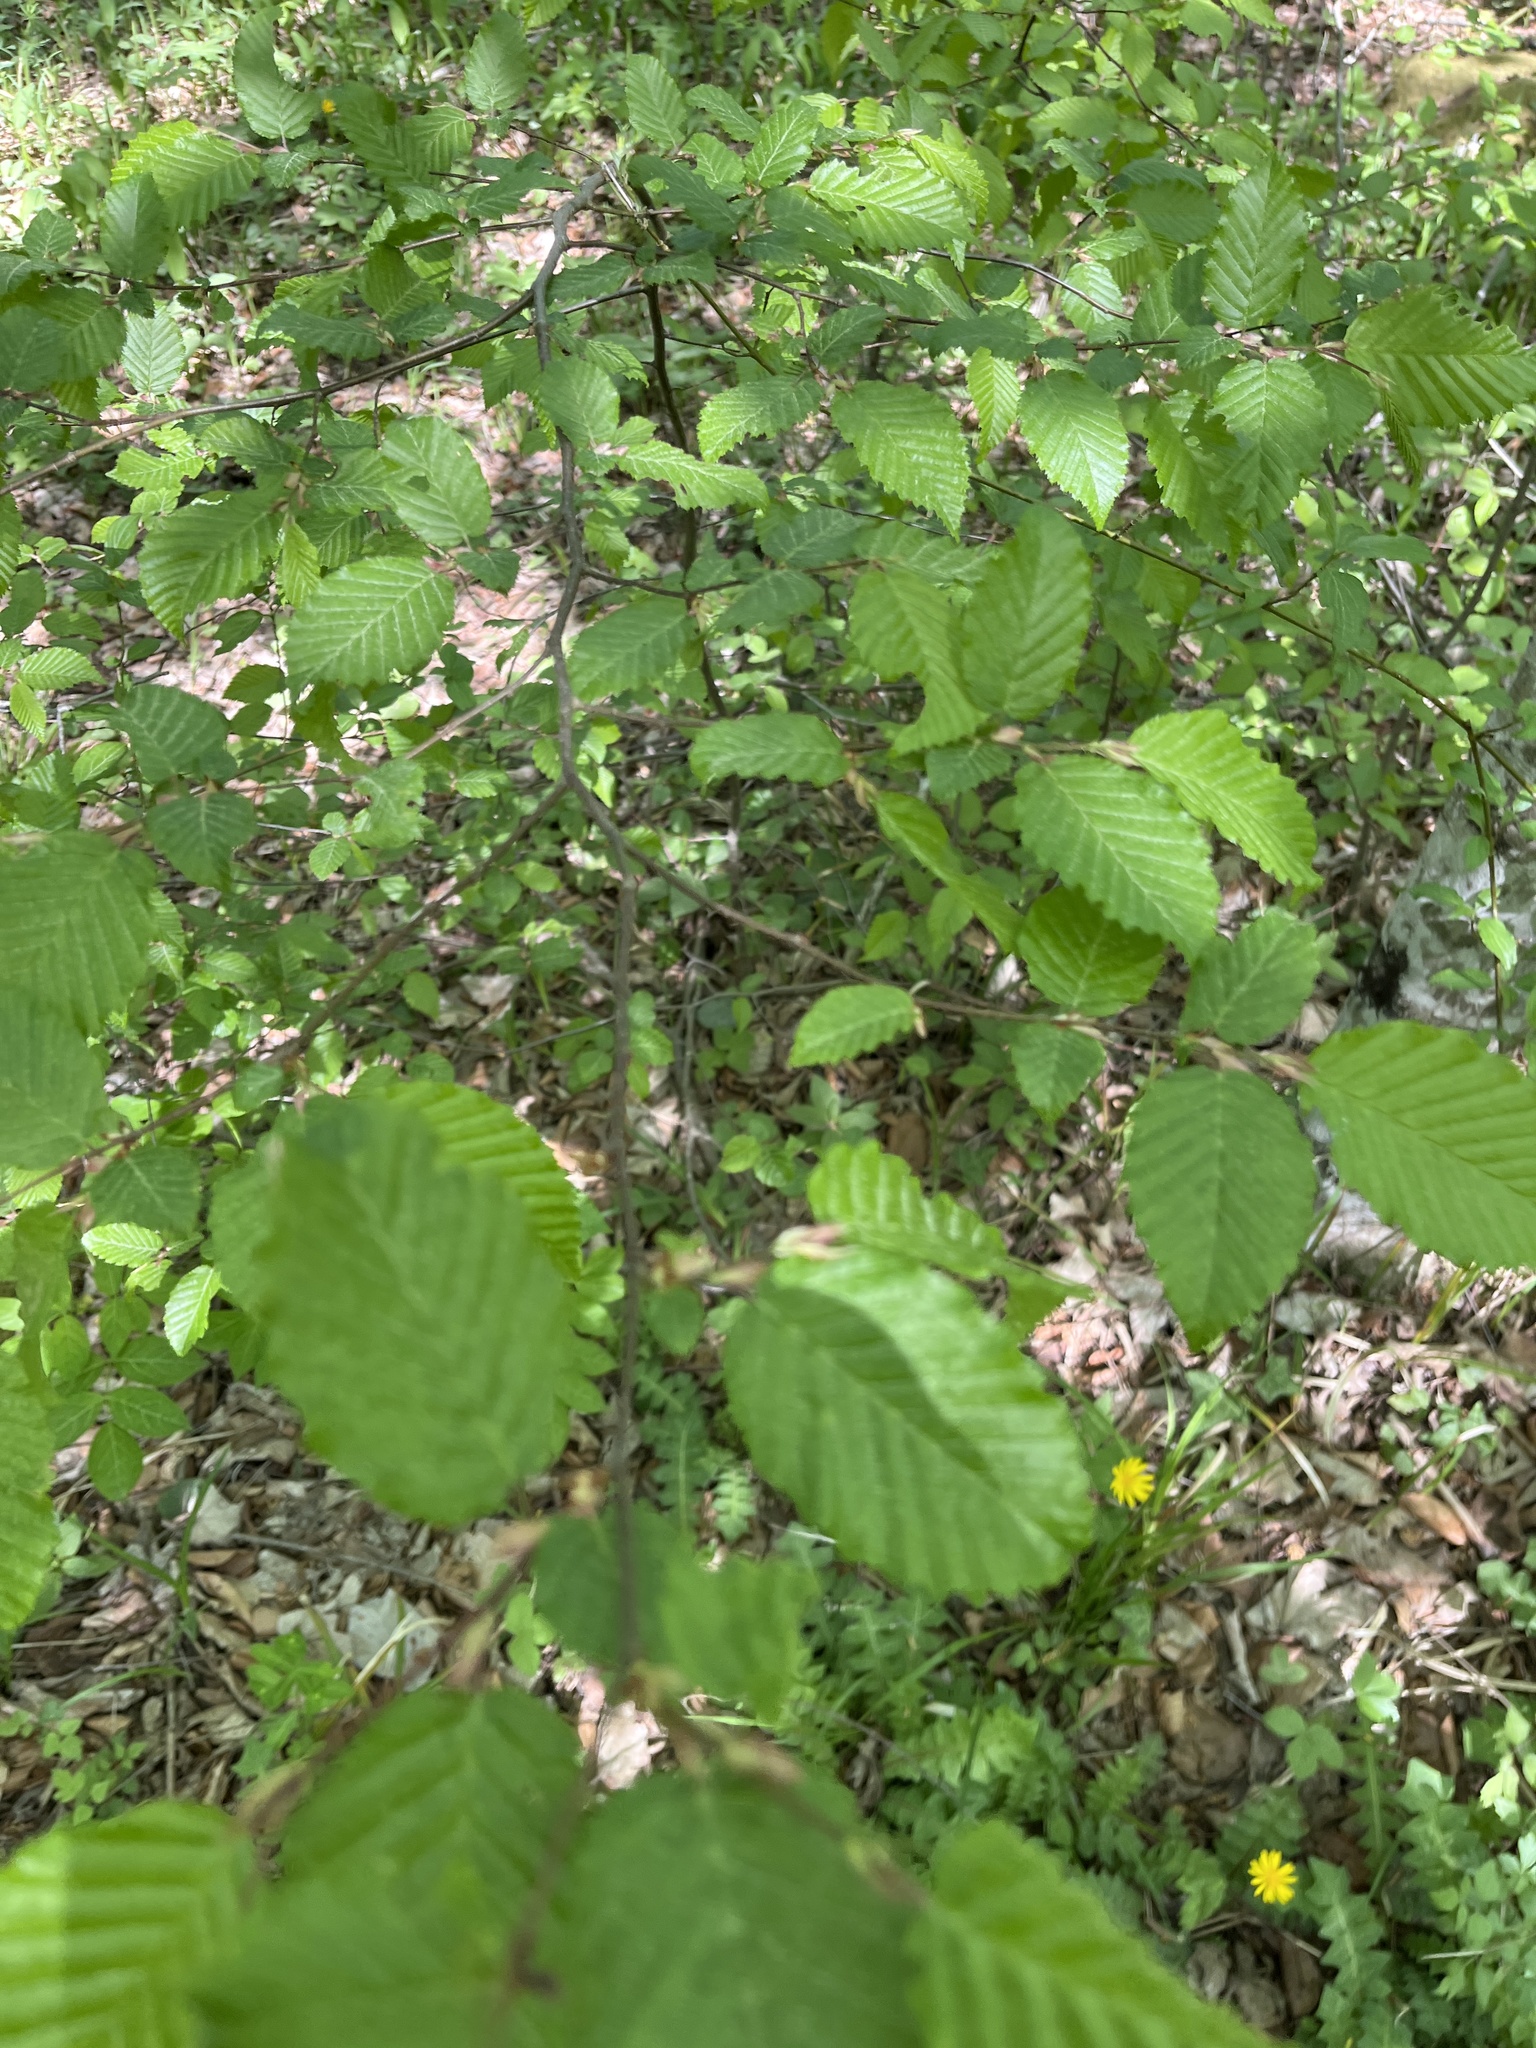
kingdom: Plantae
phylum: Tracheophyta
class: Magnoliopsida
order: Fagales
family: Betulaceae
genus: Carpinus
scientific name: Carpinus betulus
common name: Hornbeam
